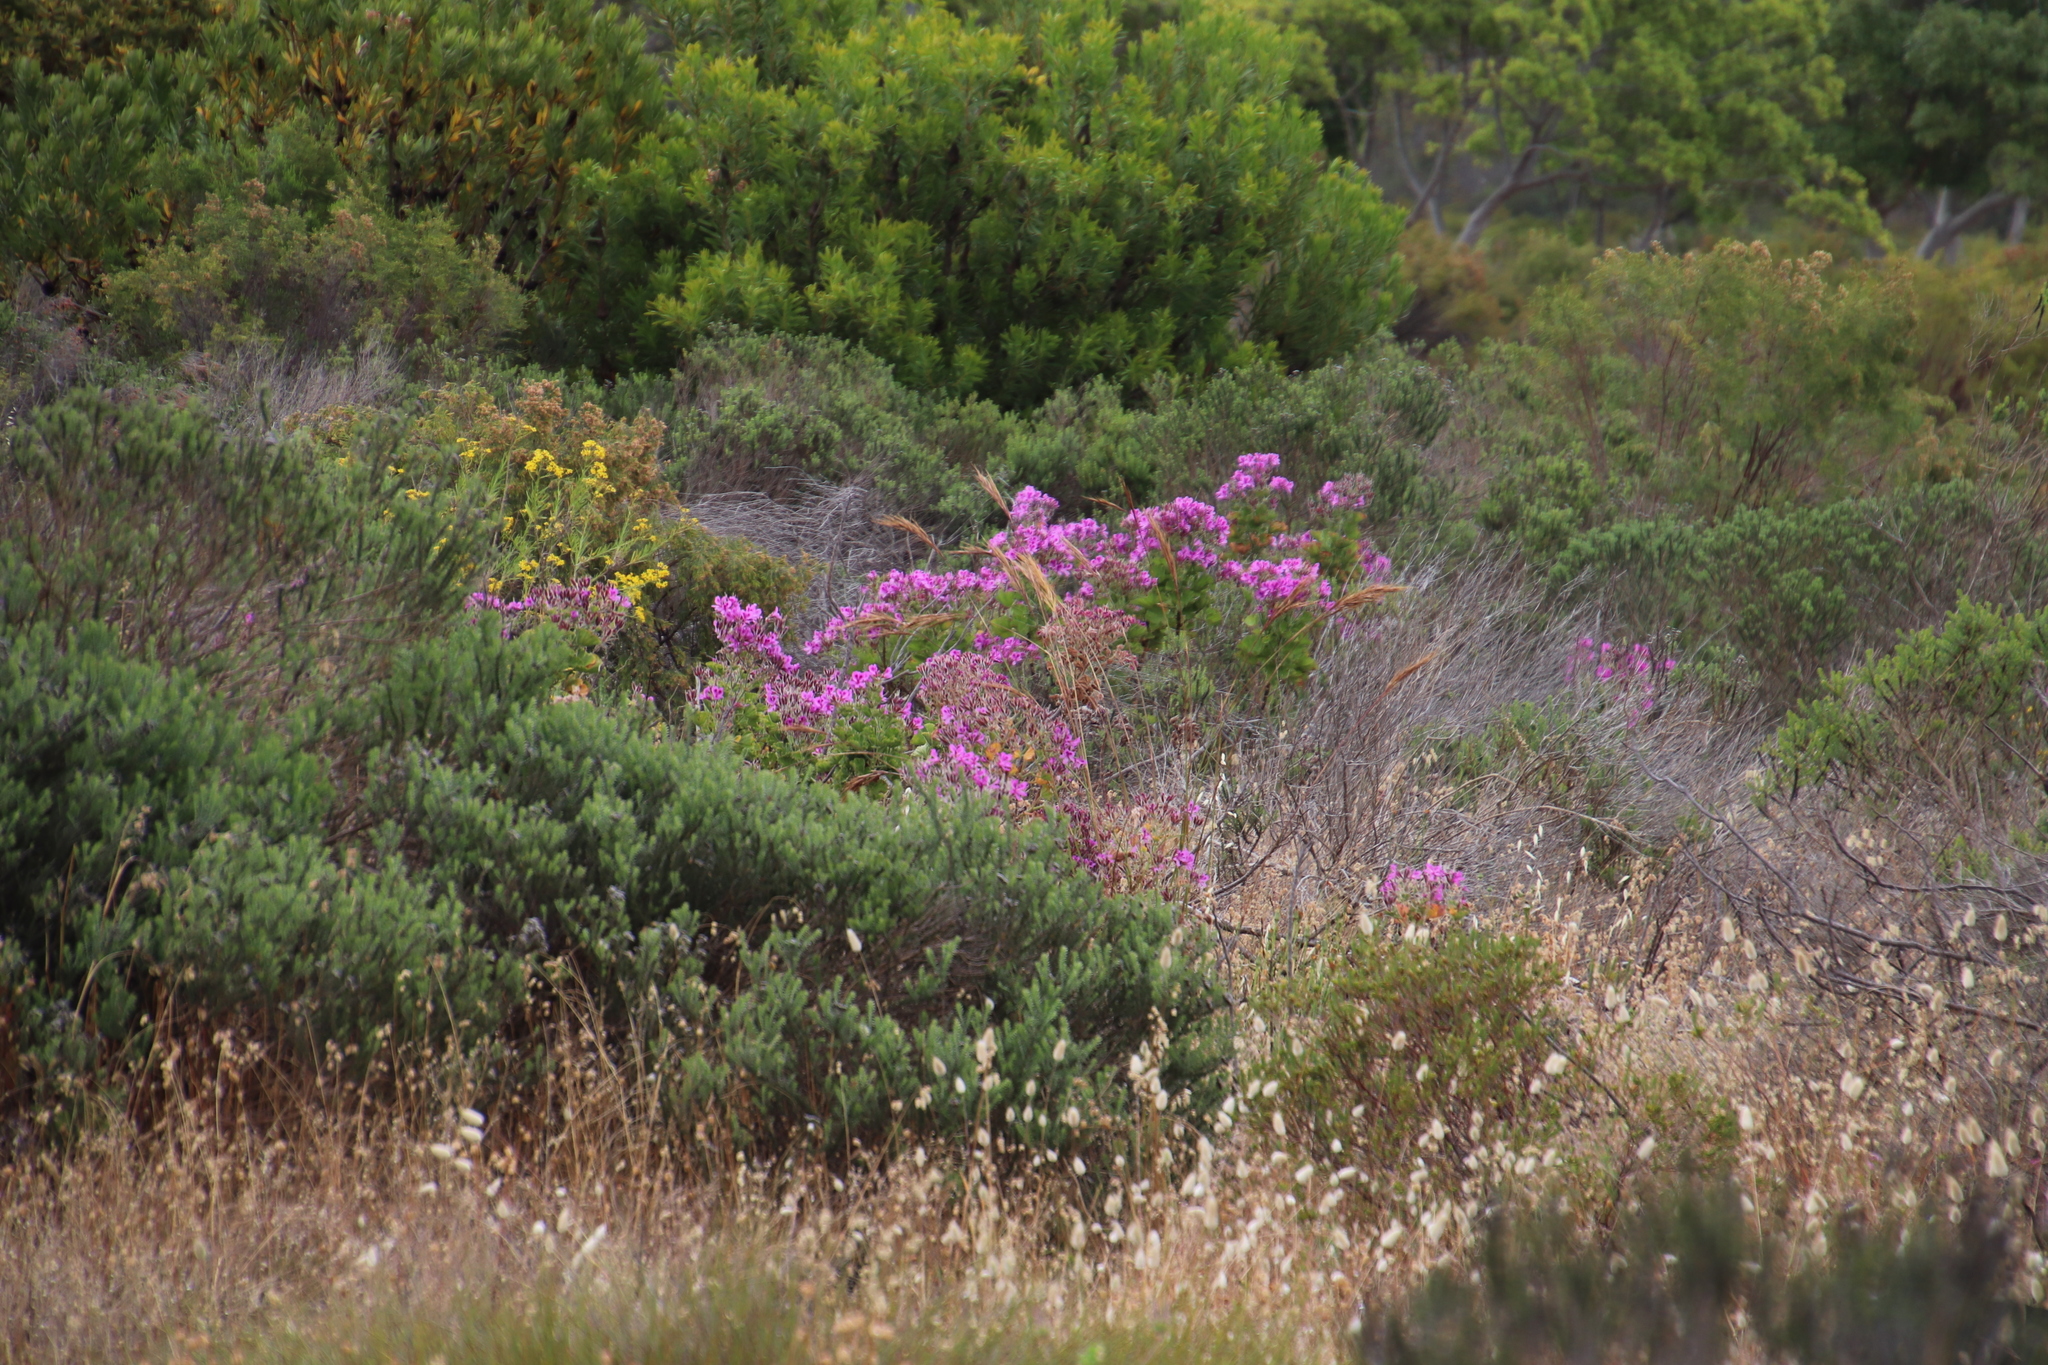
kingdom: Plantae
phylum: Tracheophyta
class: Magnoliopsida
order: Geraniales
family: Geraniaceae
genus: Pelargonium
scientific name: Pelargonium cucullatum
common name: Tree pelargonium
